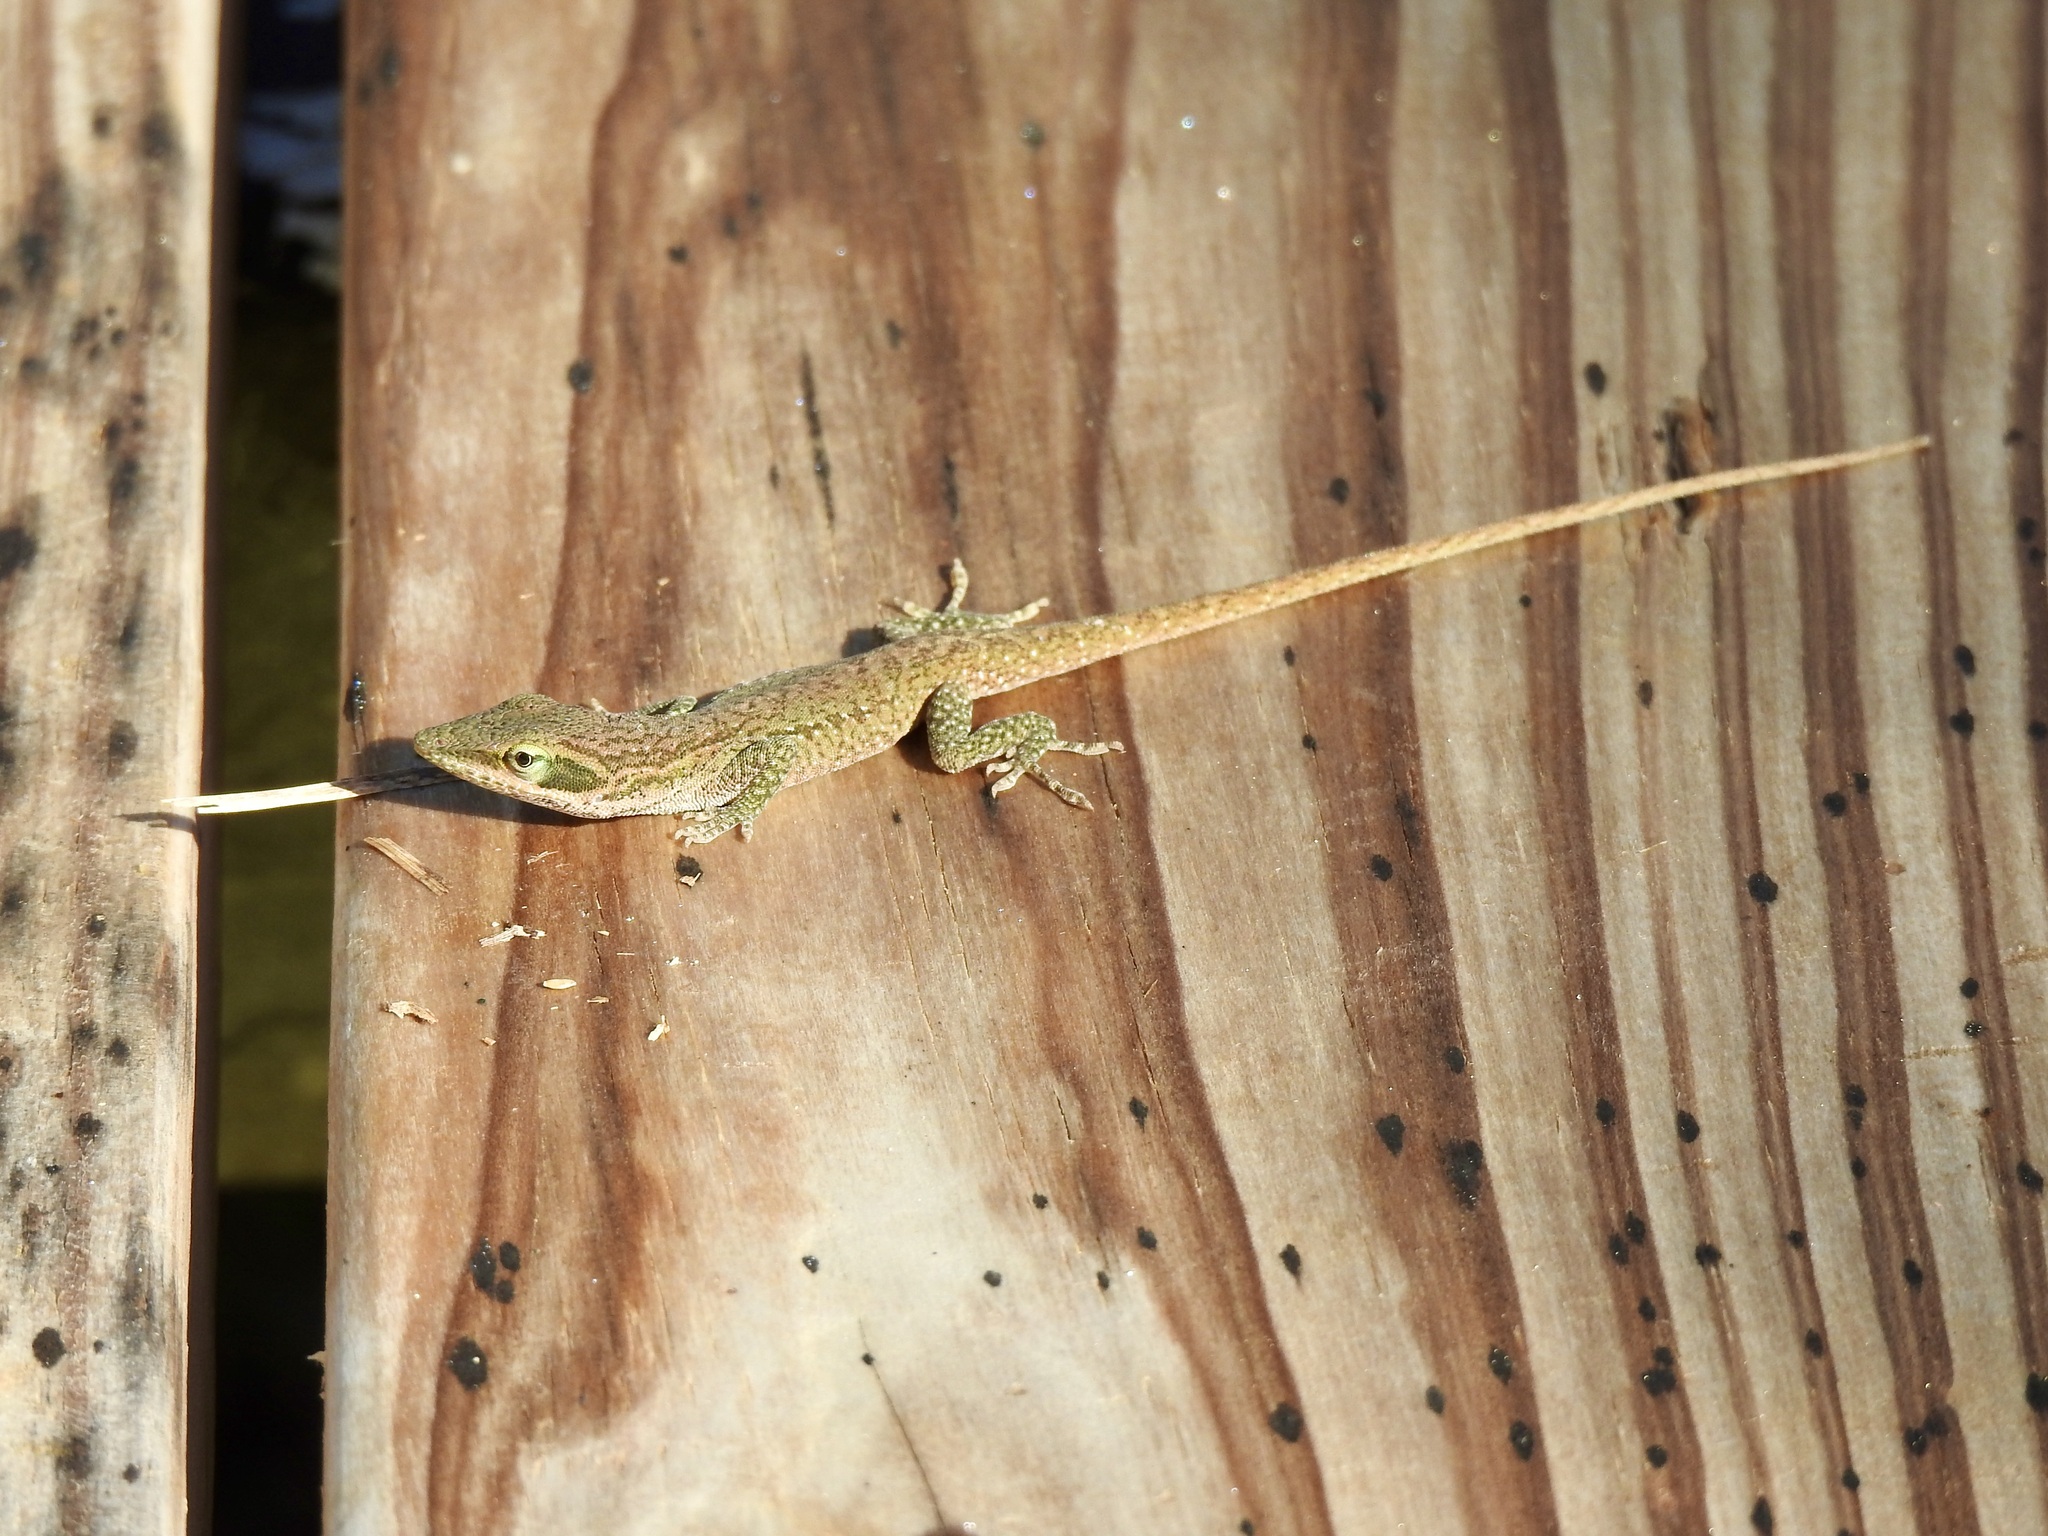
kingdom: Animalia
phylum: Chordata
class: Squamata
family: Dactyloidae
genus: Anolis
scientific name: Anolis carolinensis
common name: Green anole
